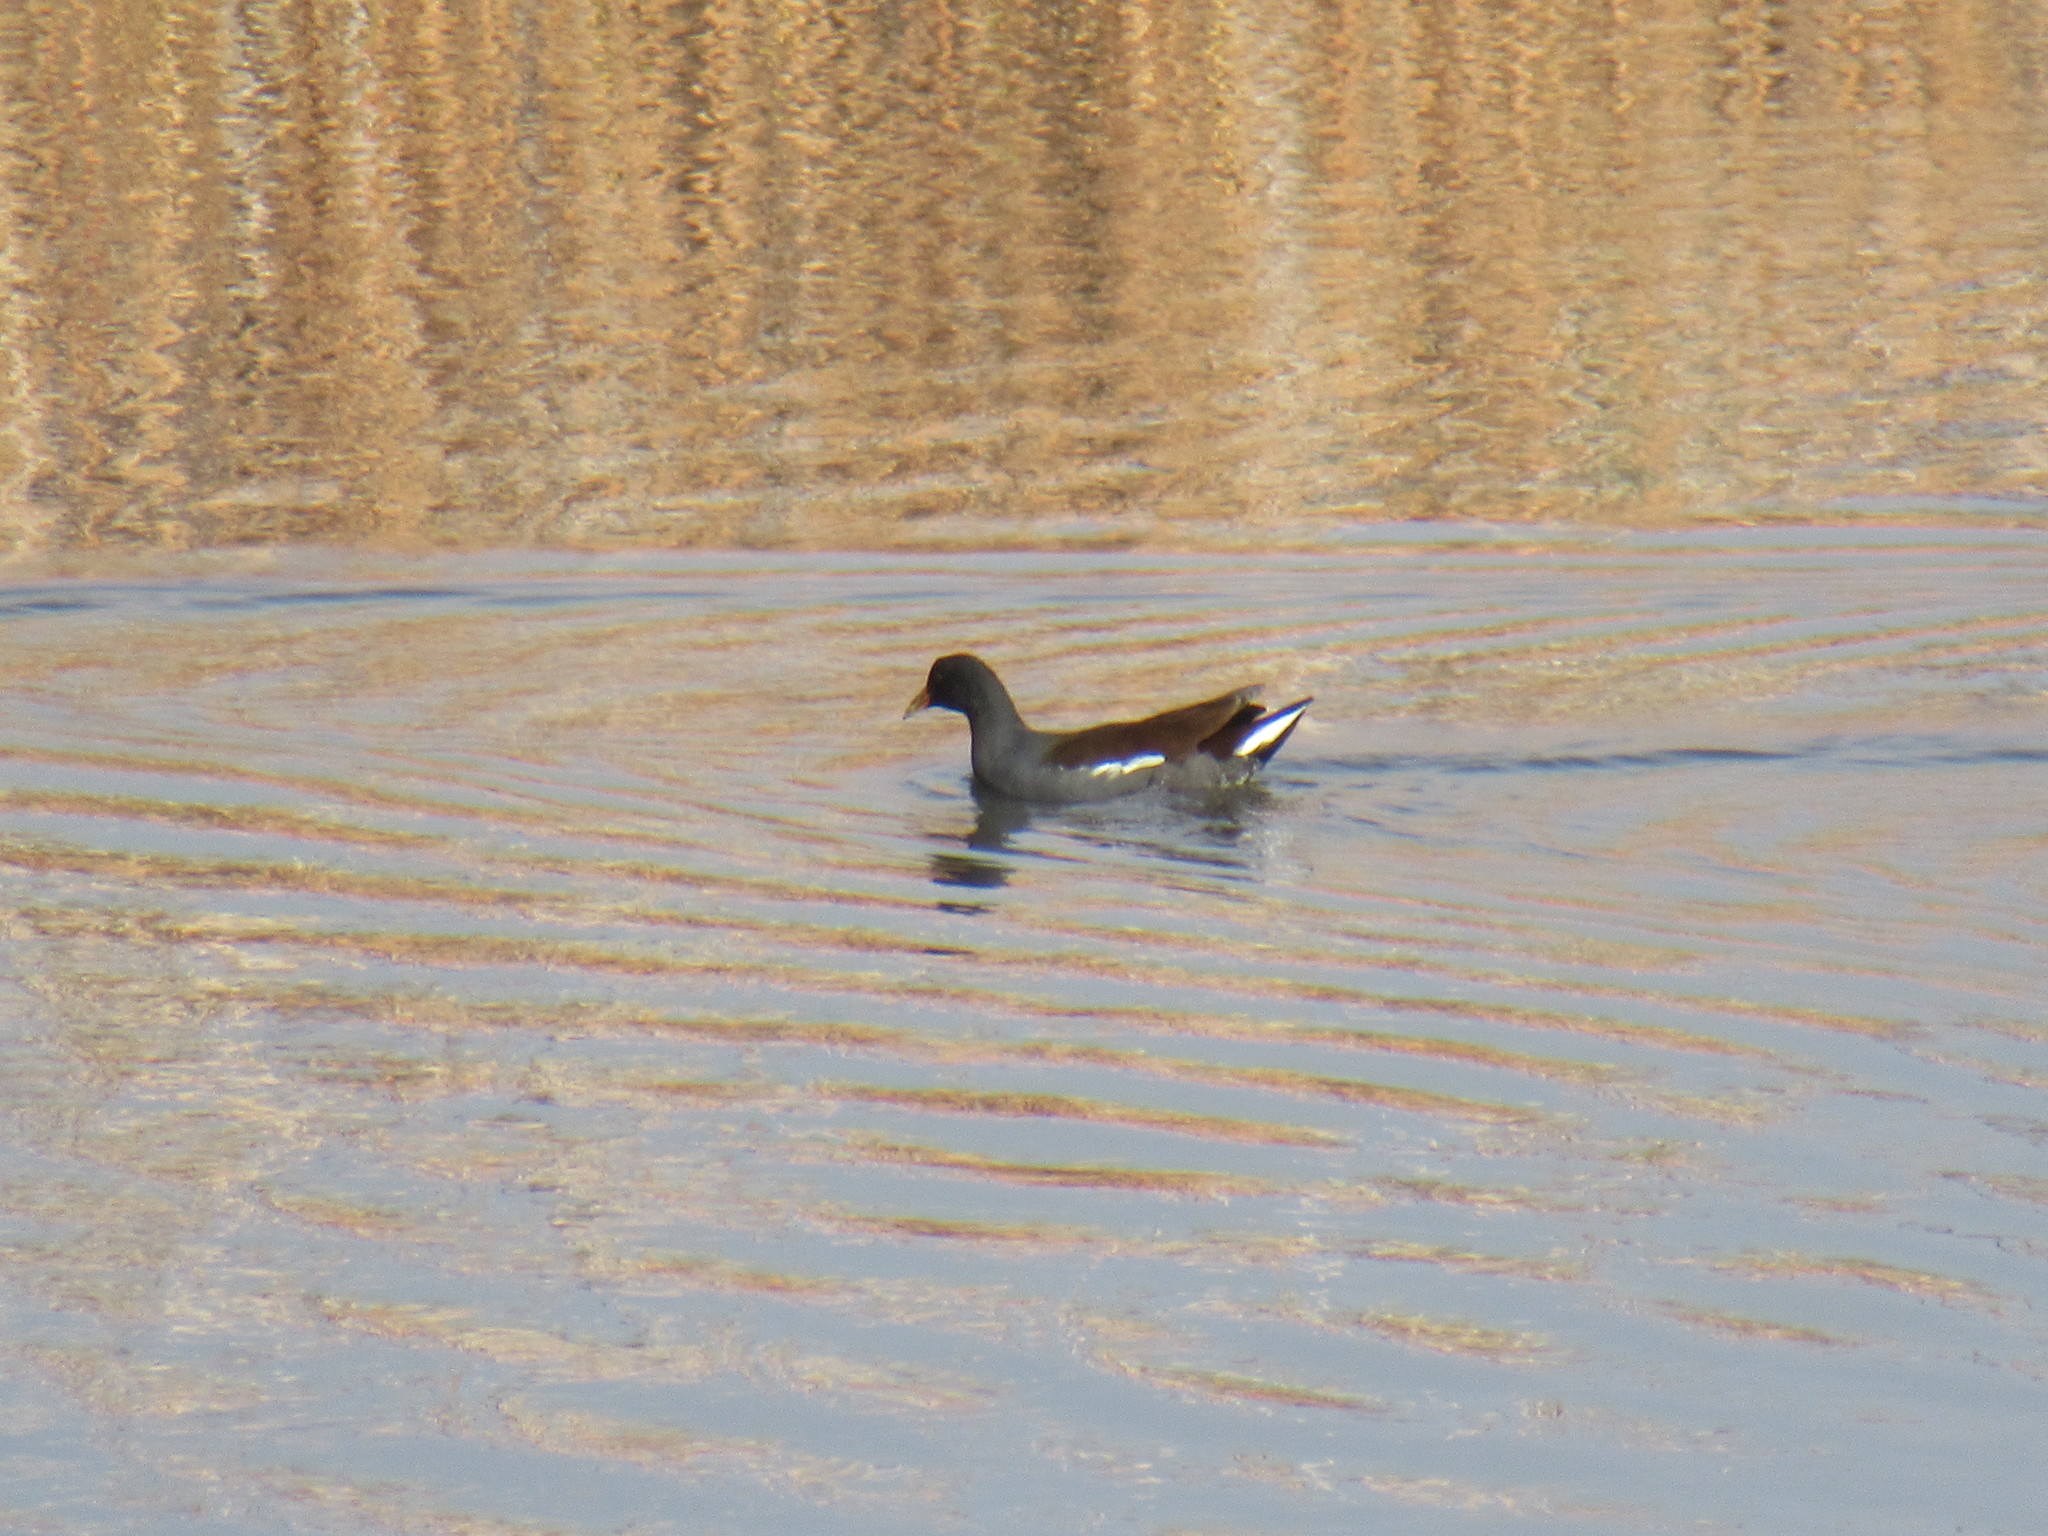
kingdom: Animalia
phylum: Chordata
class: Aves
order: Gruiformes
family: Rallidae
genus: Gallinula
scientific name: Gallinula chloropus
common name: Common moorhen
